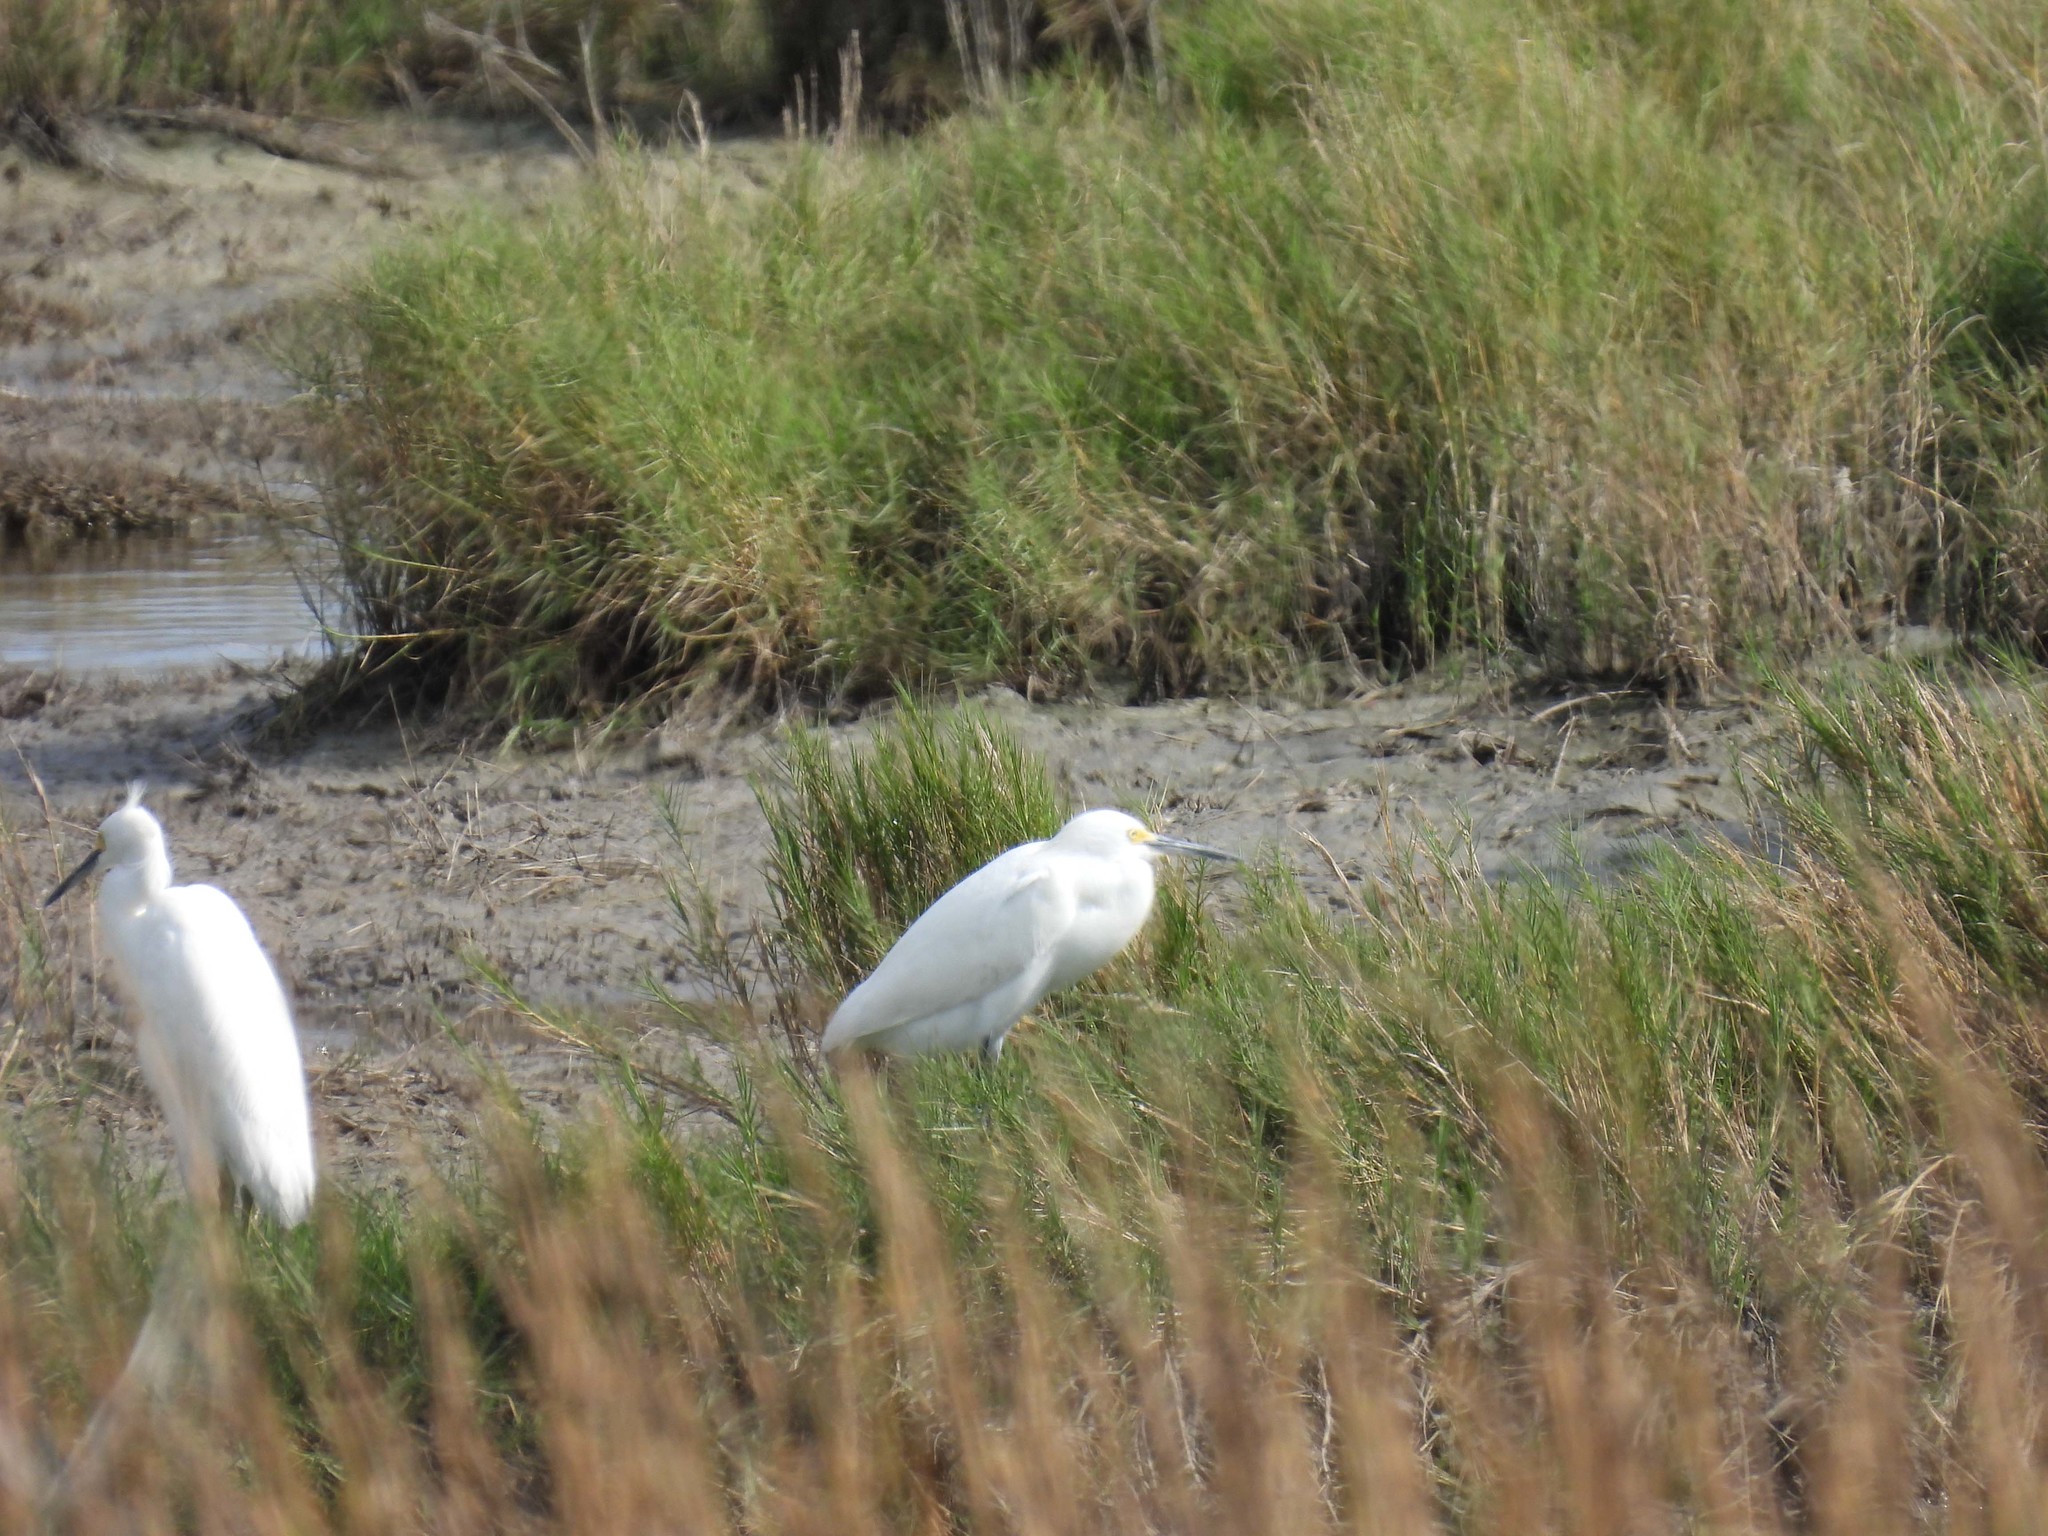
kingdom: Animalia
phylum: Chordata
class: Aves
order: Pelecaniformes
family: Ardeidae
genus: Egretta
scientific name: Egretta thula
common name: Snowy egret
